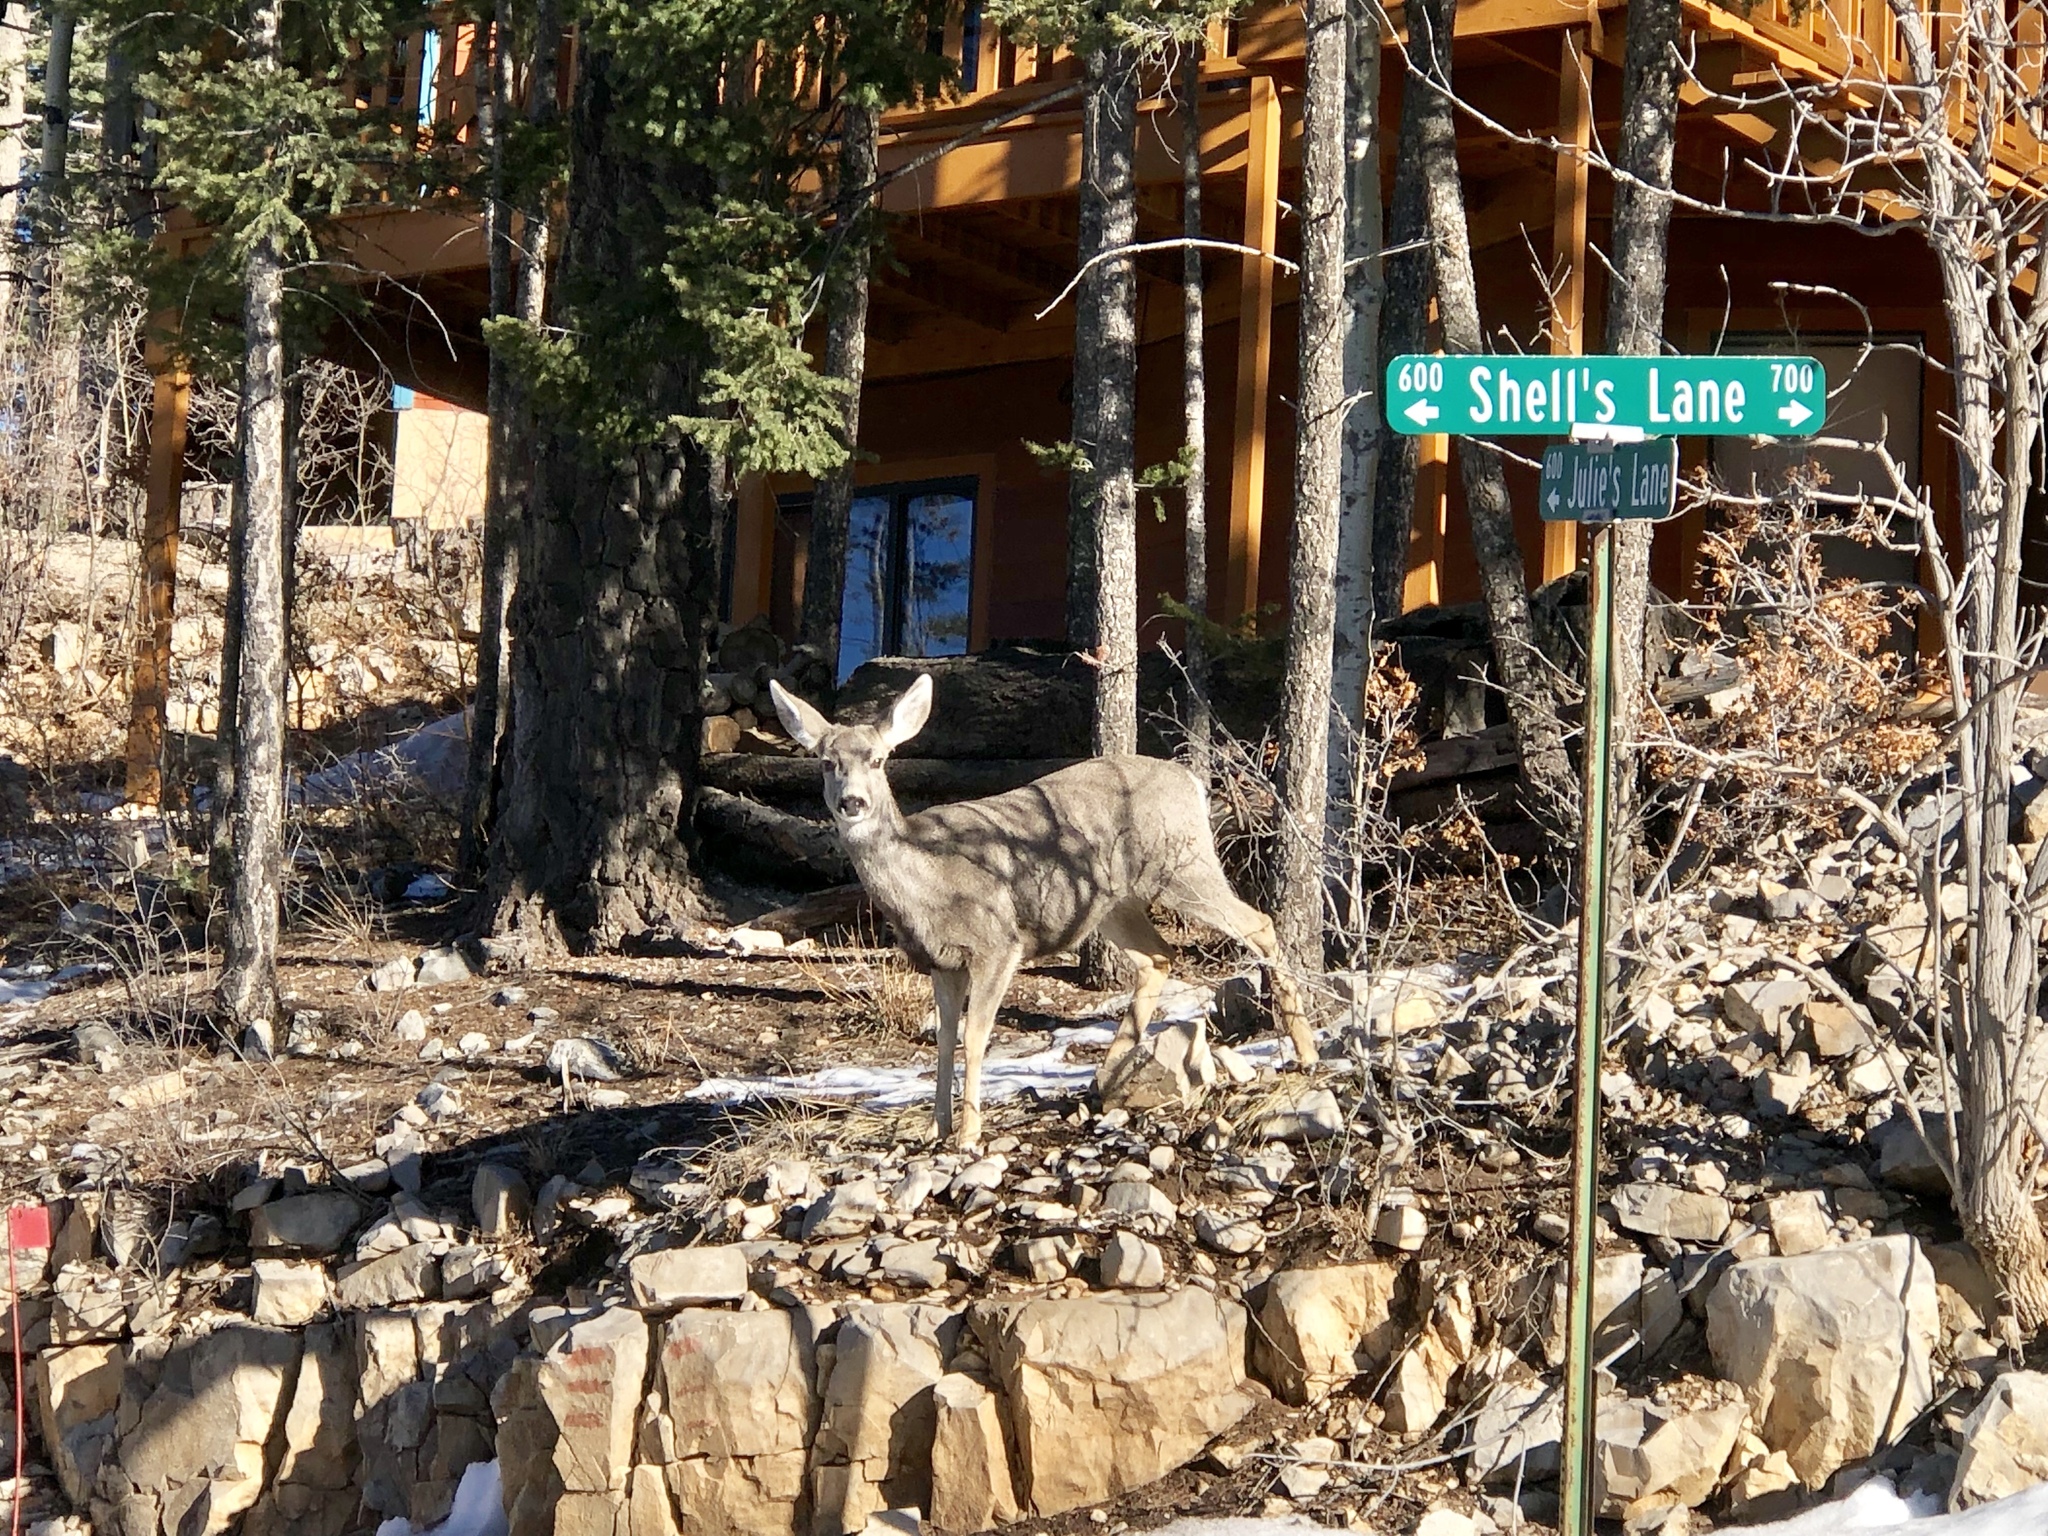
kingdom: Animalia
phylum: Chordata
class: Mammalia
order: Artiodactyla
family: Cervidae
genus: Odocoileus
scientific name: Odocoileus hemionus
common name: Mule deer
